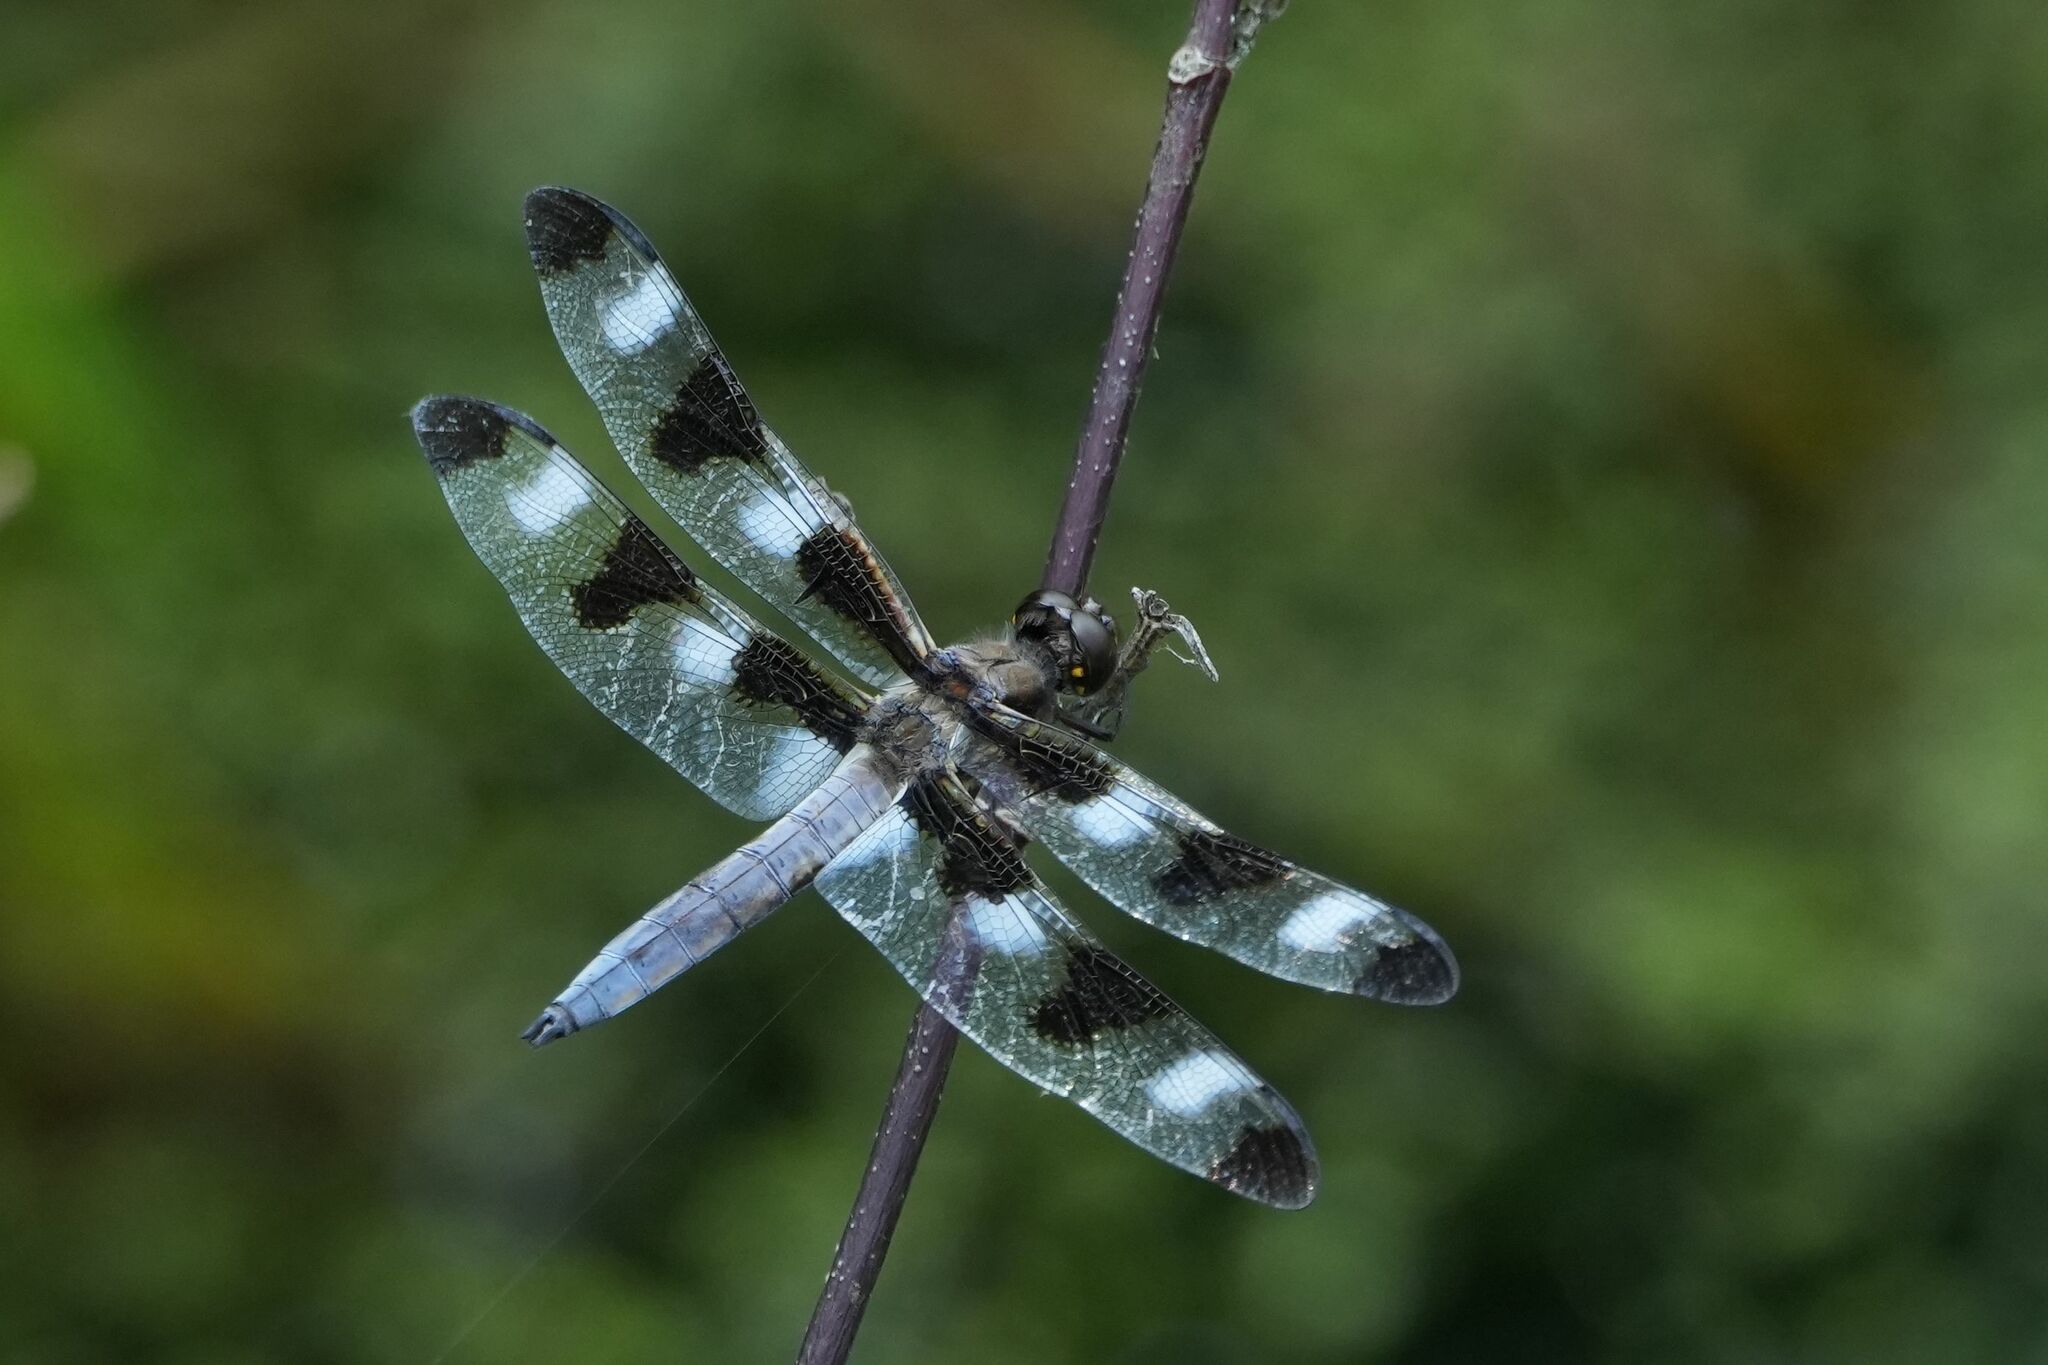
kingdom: Animalia
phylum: Arthropoda
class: Insecta
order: Odonata
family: Libellulidae
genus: Libellula
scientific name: Libellula pulchella
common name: Twelve-spotted skimmer
